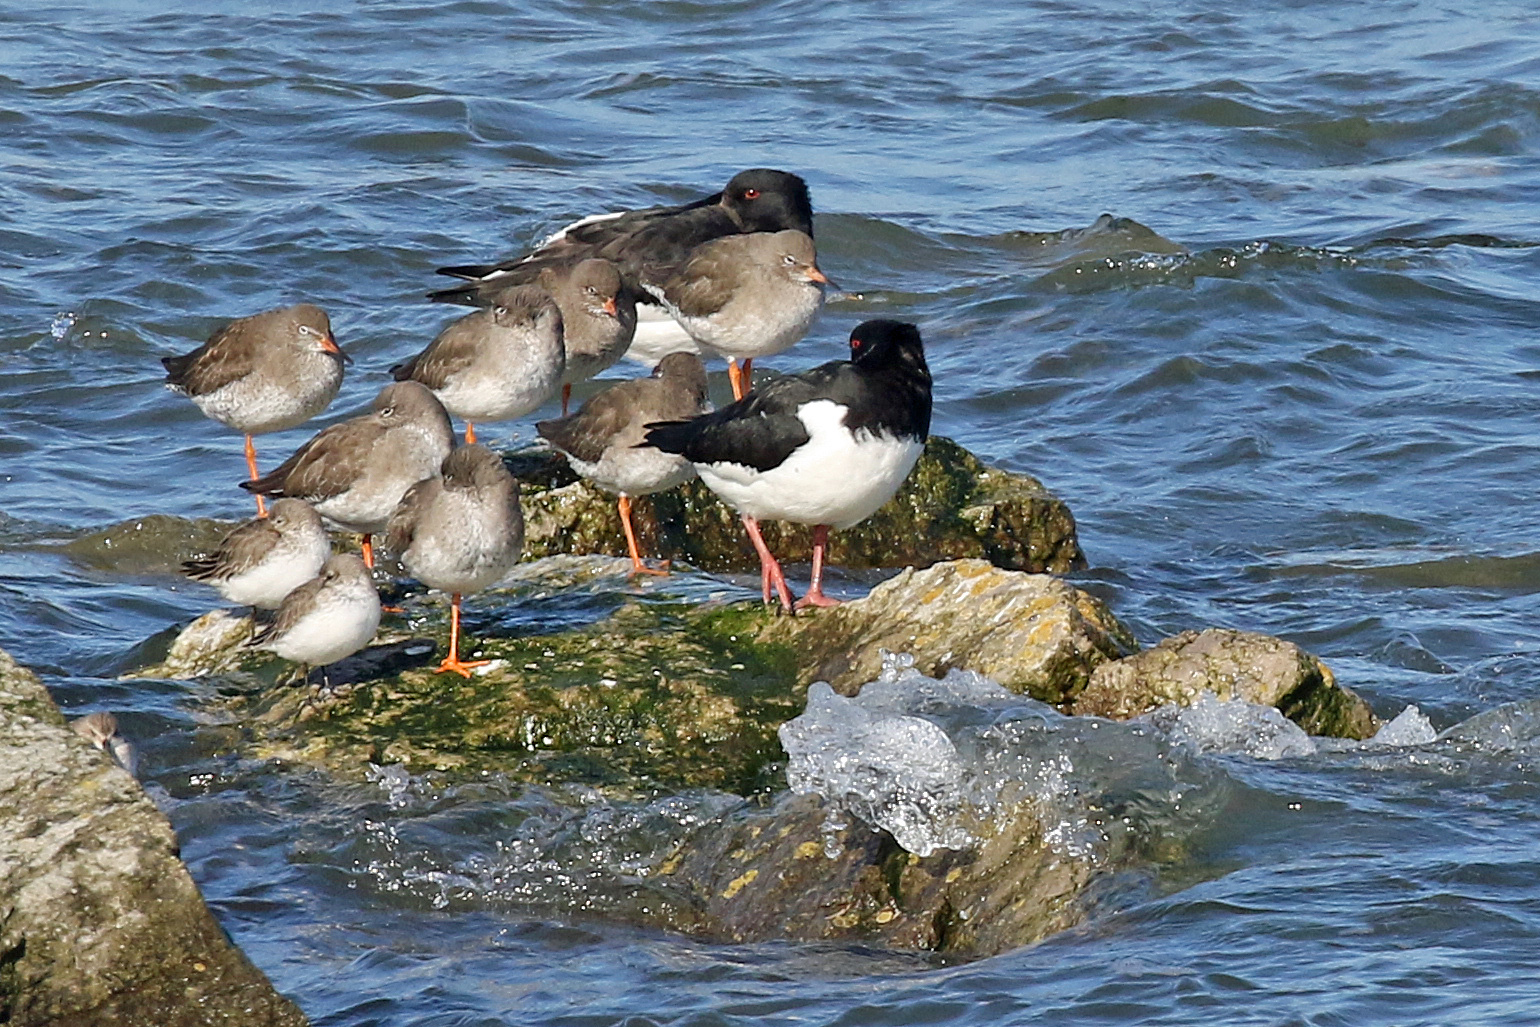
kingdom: Animalia
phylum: Chordata
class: Aves
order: Charadriiformes
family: Scolopacidae
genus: Tringa
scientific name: Tringa totanus
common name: Common redshank
